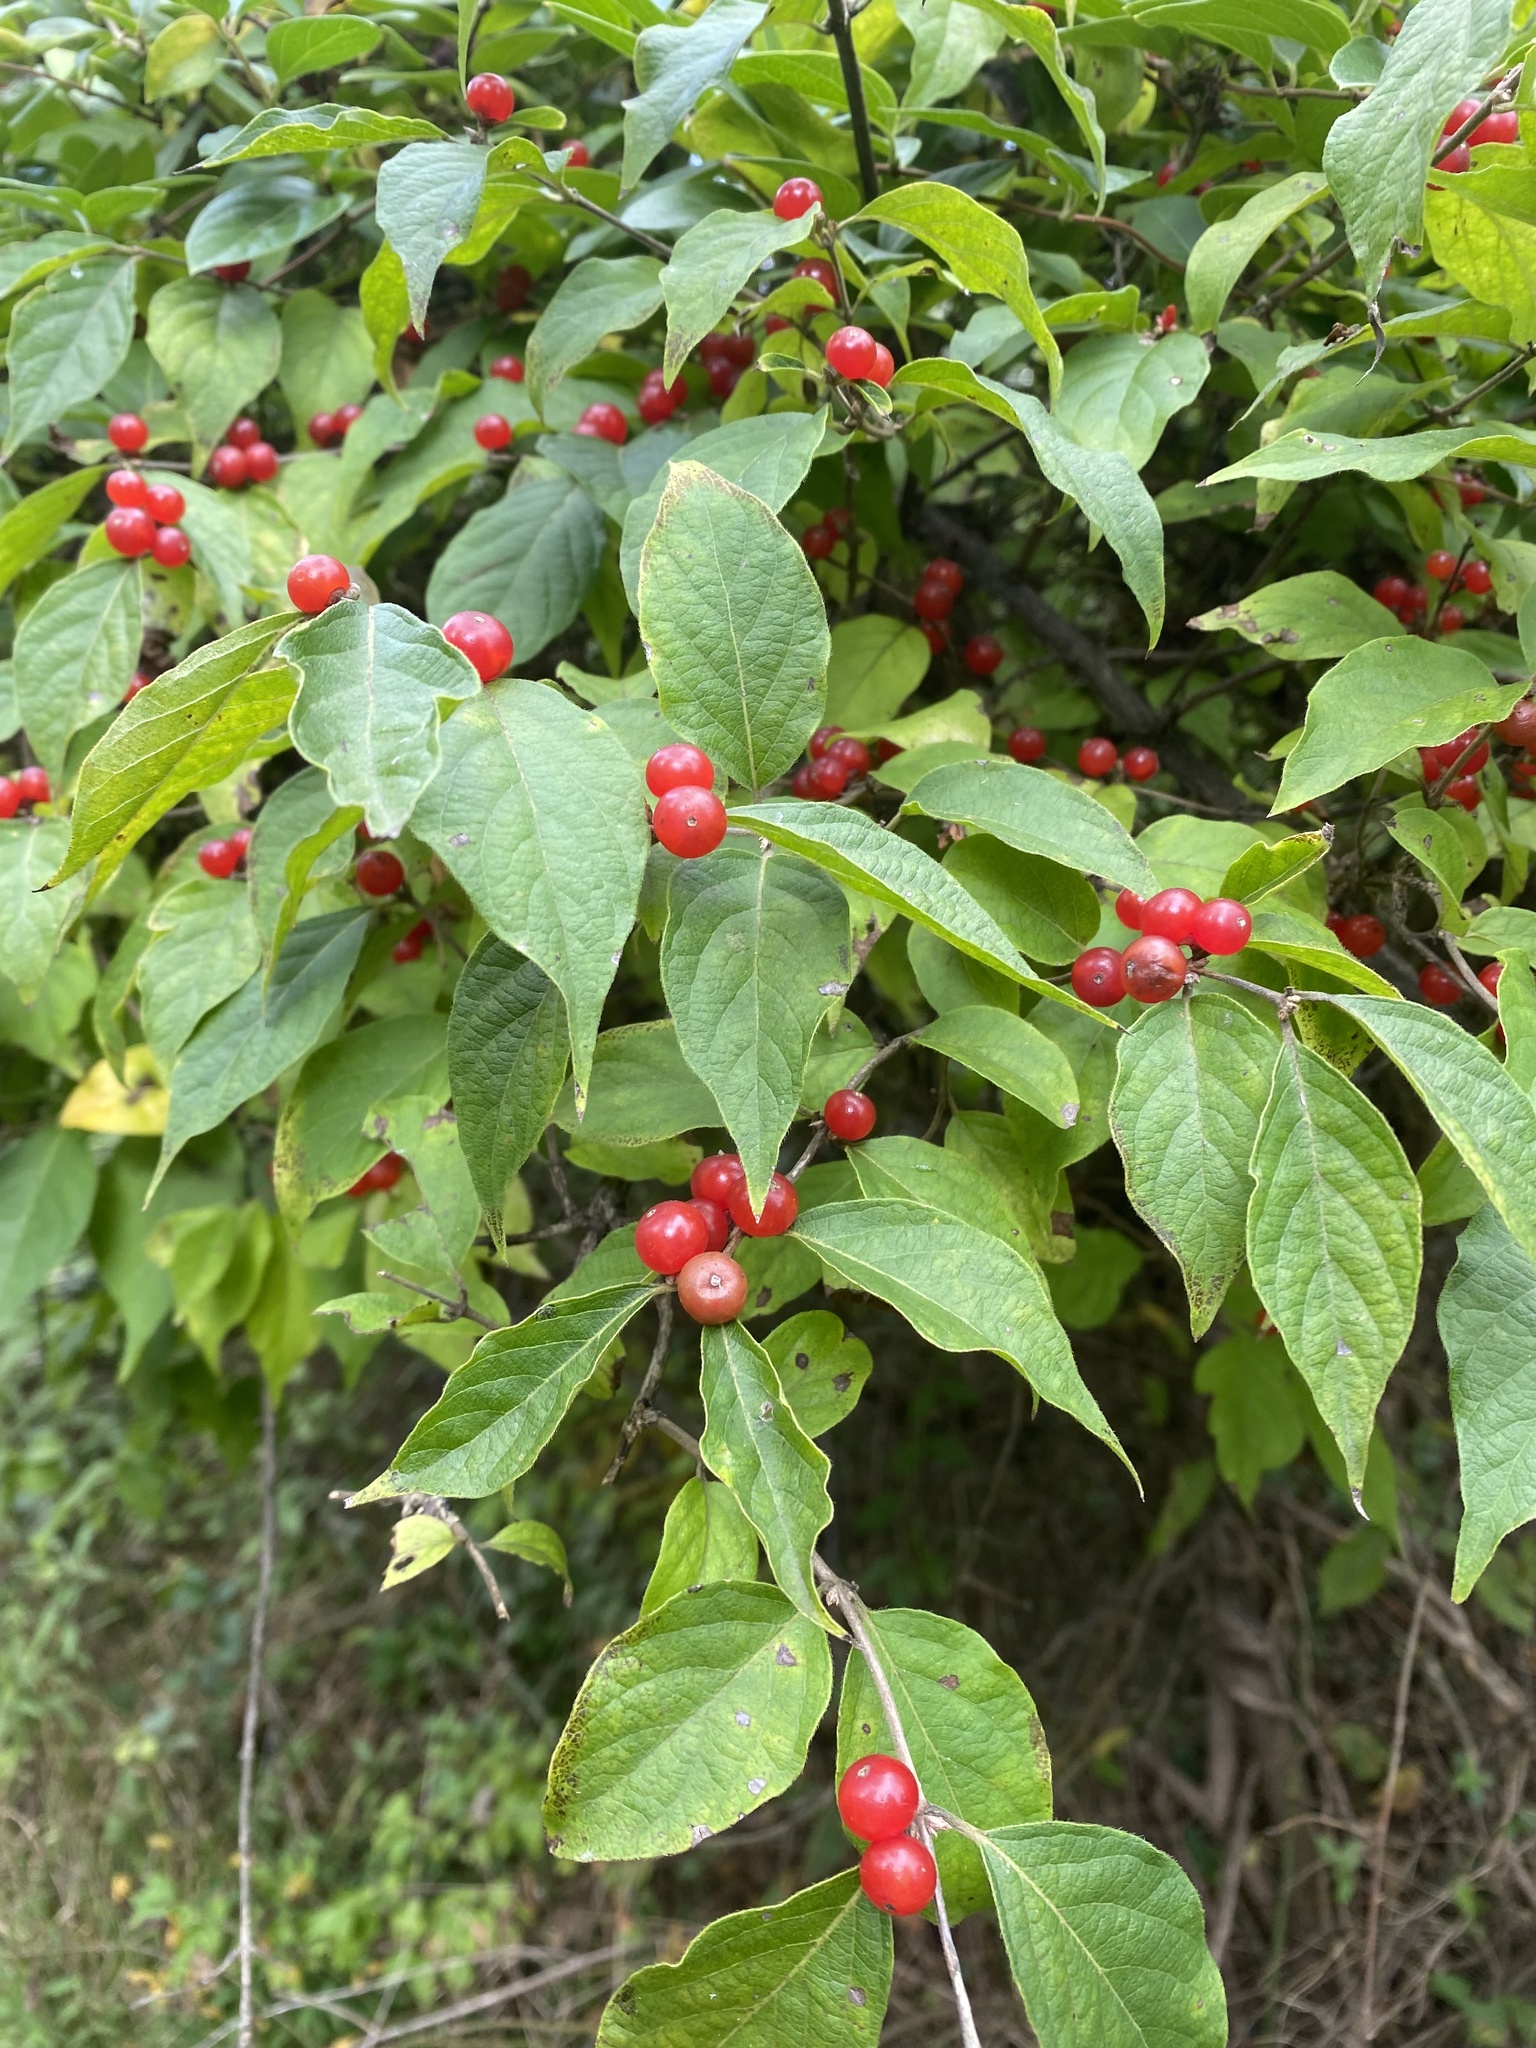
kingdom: Plantae
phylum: Tracheophyta
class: Magnoliopsida
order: Dipsacales
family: Caprifoliaceae
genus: Lonicera
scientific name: Lonicera maackii
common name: Amur honeysuckle
